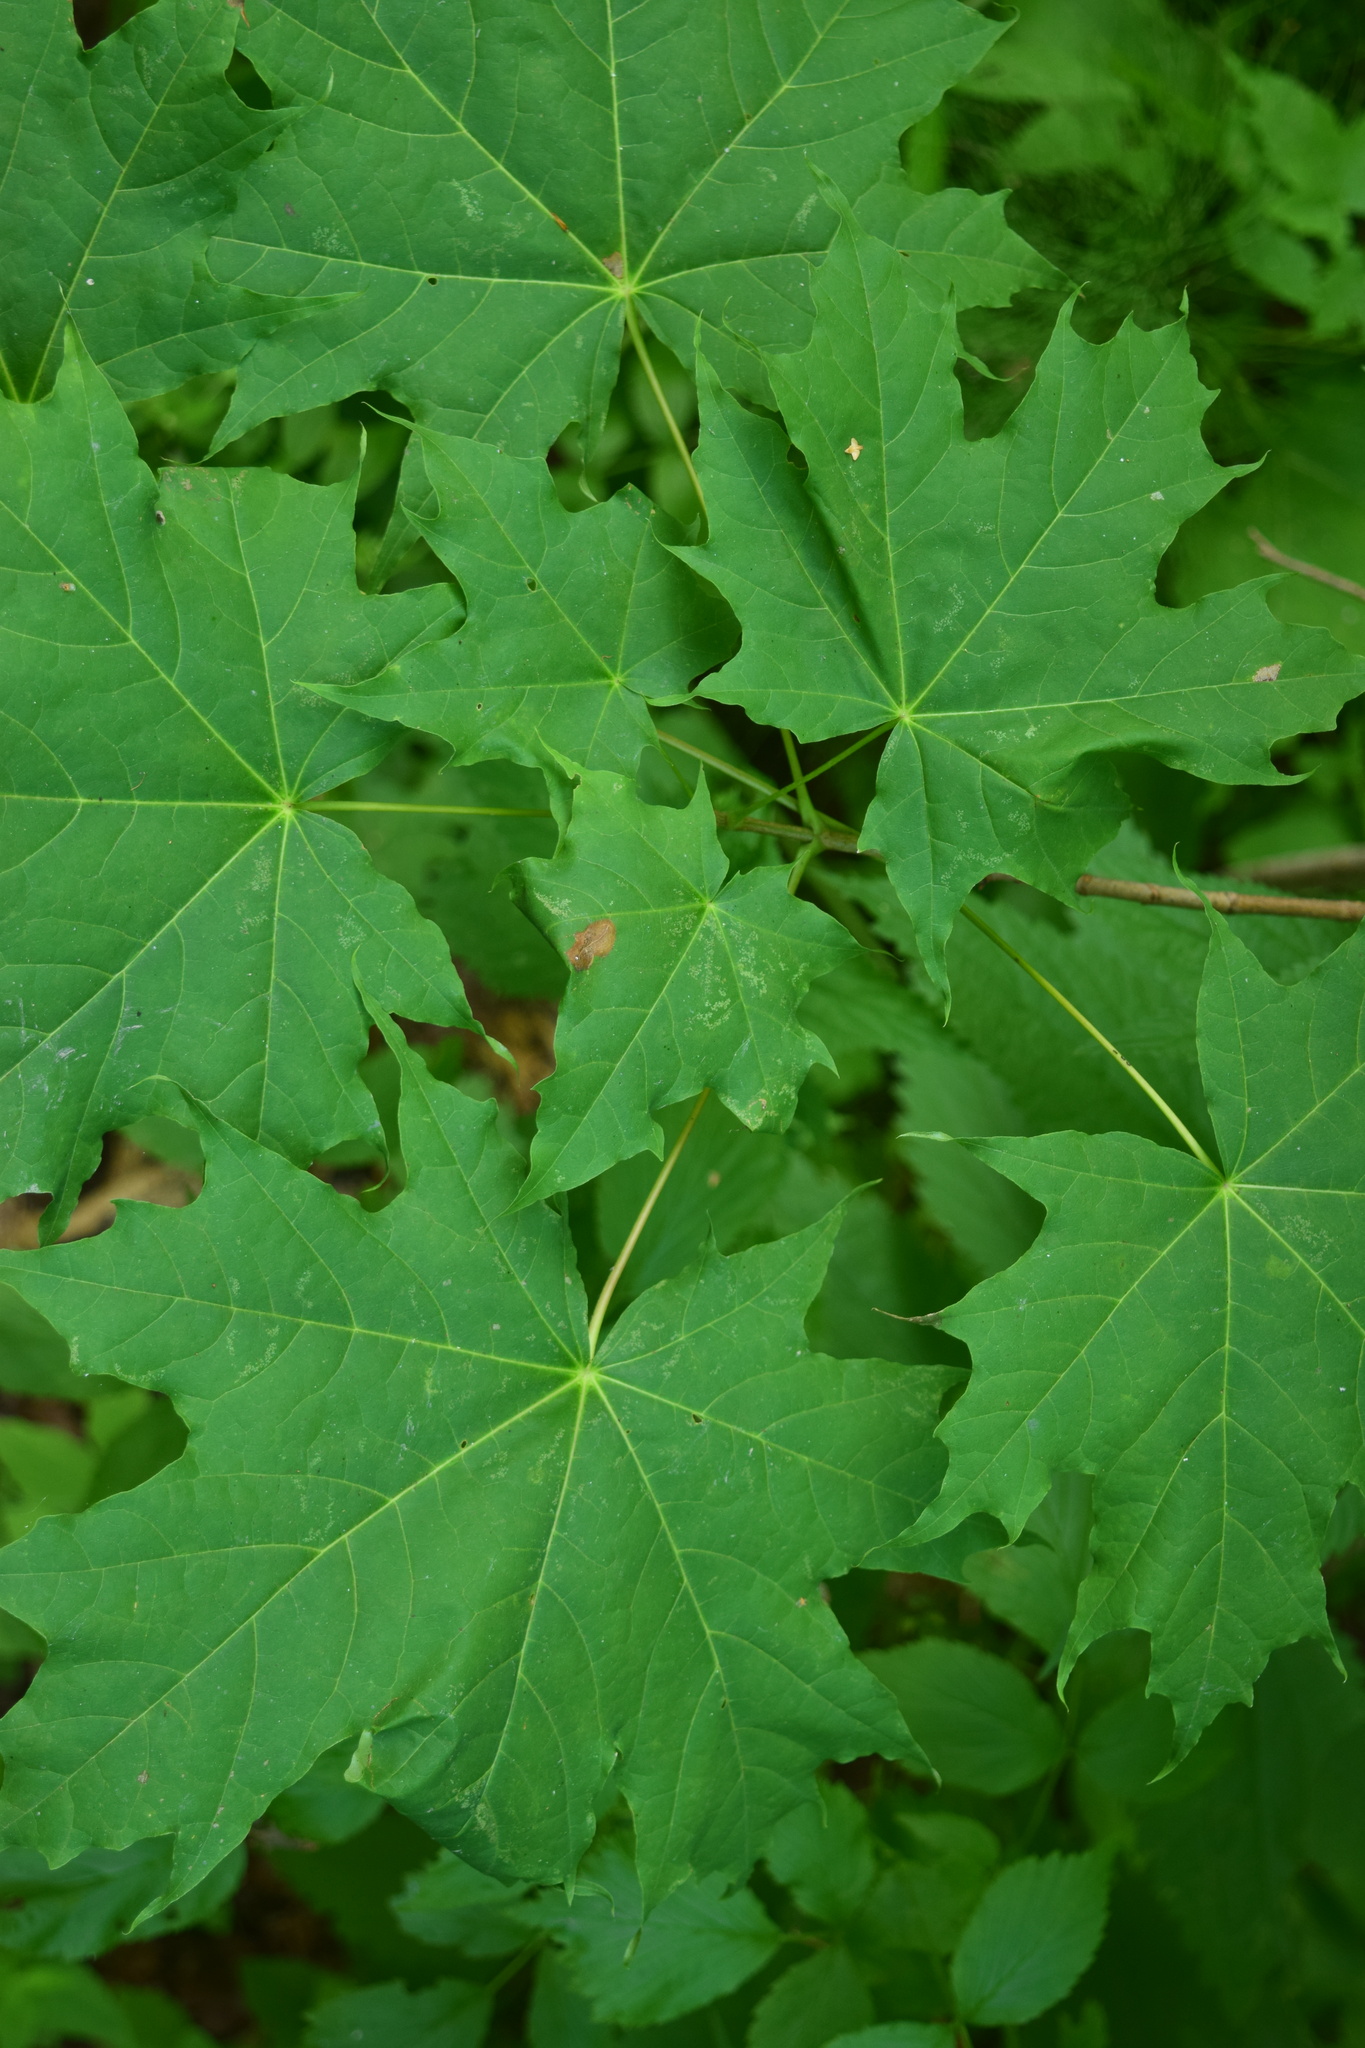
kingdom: Plantae
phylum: Tracheophyta
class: Magnoliopsida
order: Sapindales
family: Sapindaceae
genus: Acer
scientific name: Acer platanoides
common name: Norway maple
